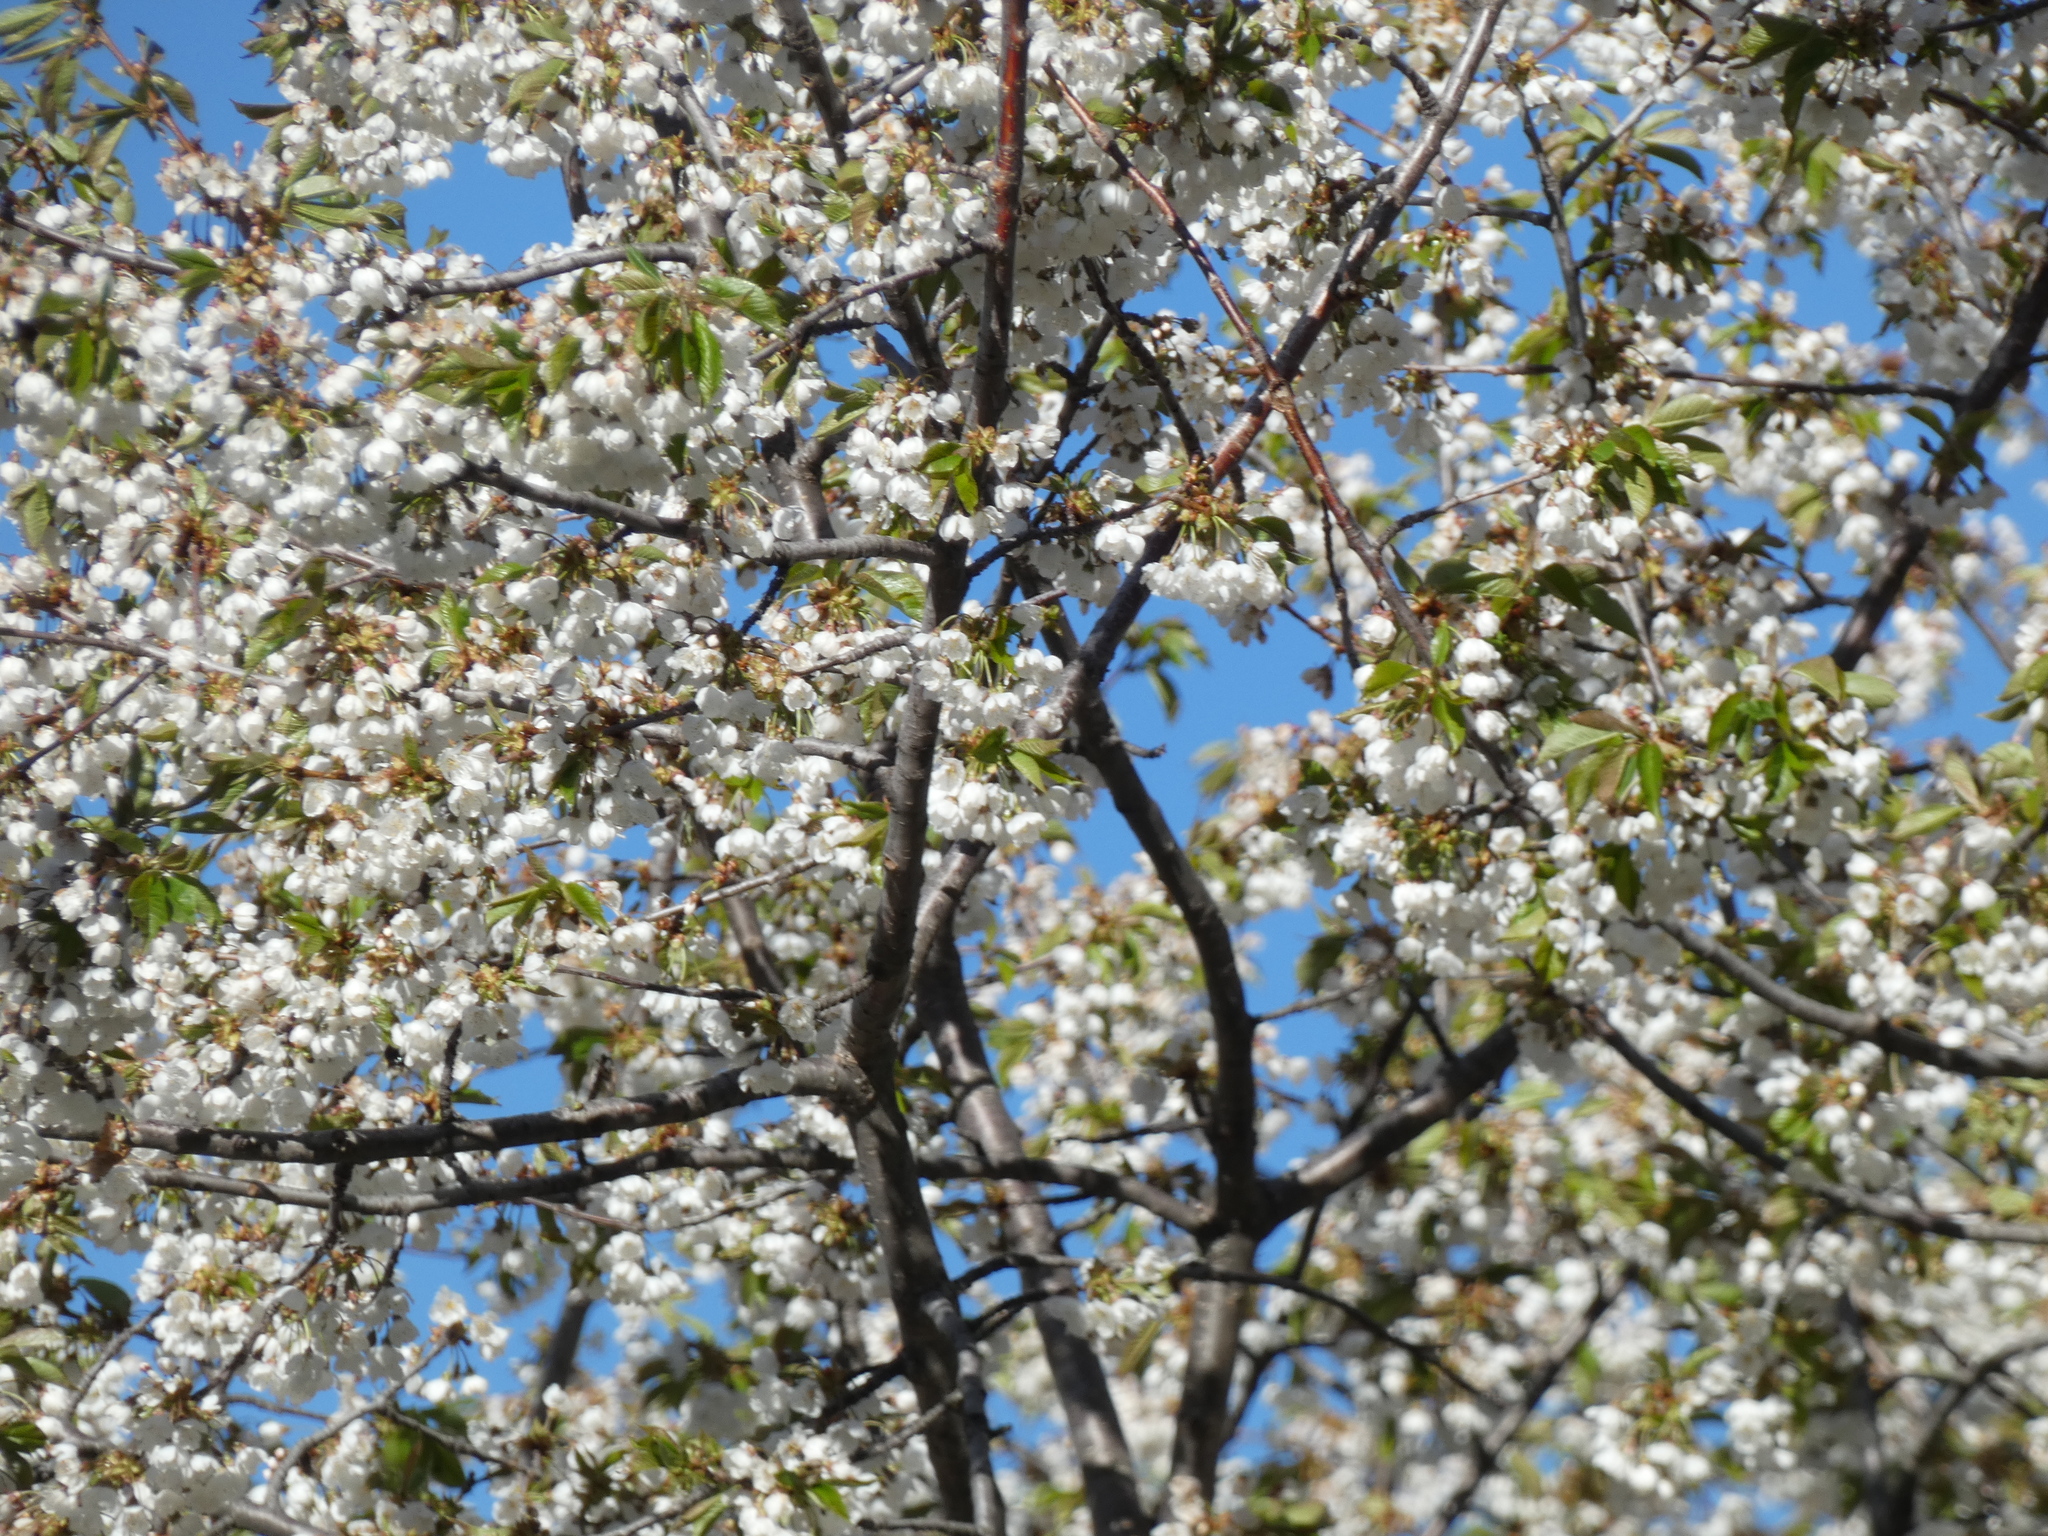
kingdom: Plantae
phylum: Tracheophyta
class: Magnoliopsida
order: Rosales
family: Rosaceae
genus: Prunus
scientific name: Prunus avium
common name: Sweet cherry
